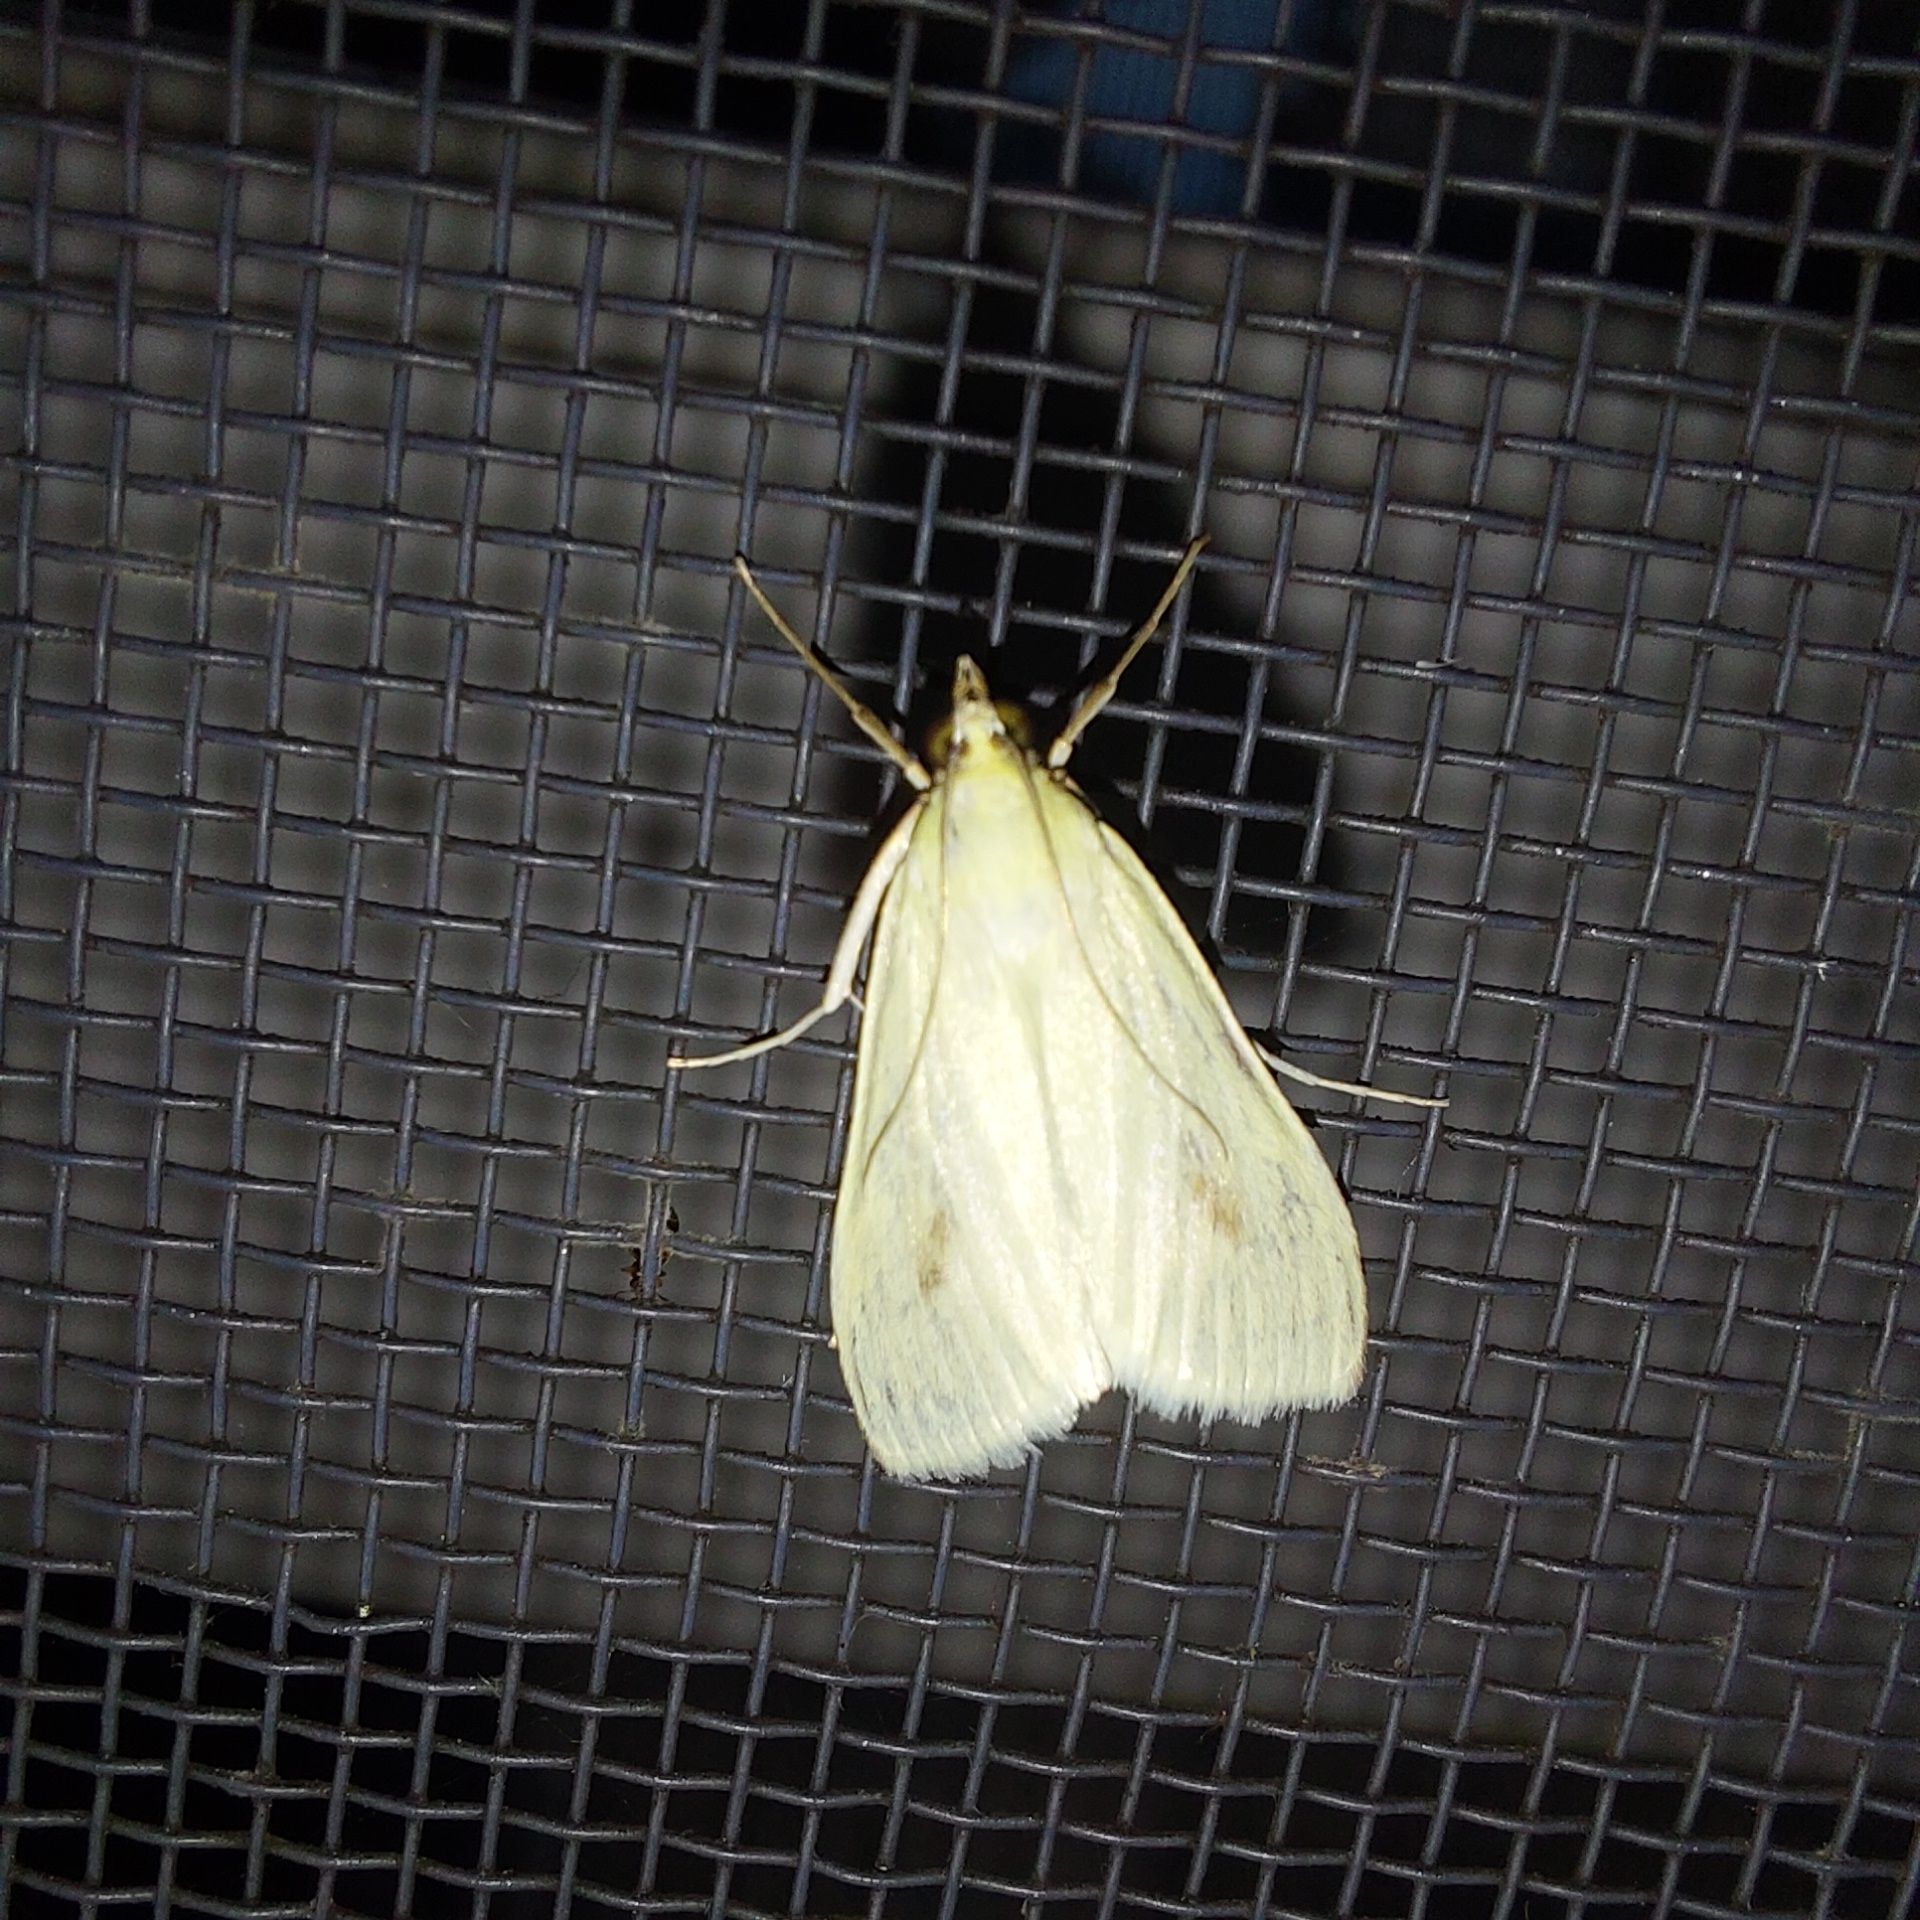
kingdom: Animalia
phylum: Arthropoda
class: Insecta
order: Lepidoptera
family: Crambidae
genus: Sitochroa
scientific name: Sitochroa palealis
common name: Greenish-yellow sitochroa moth
